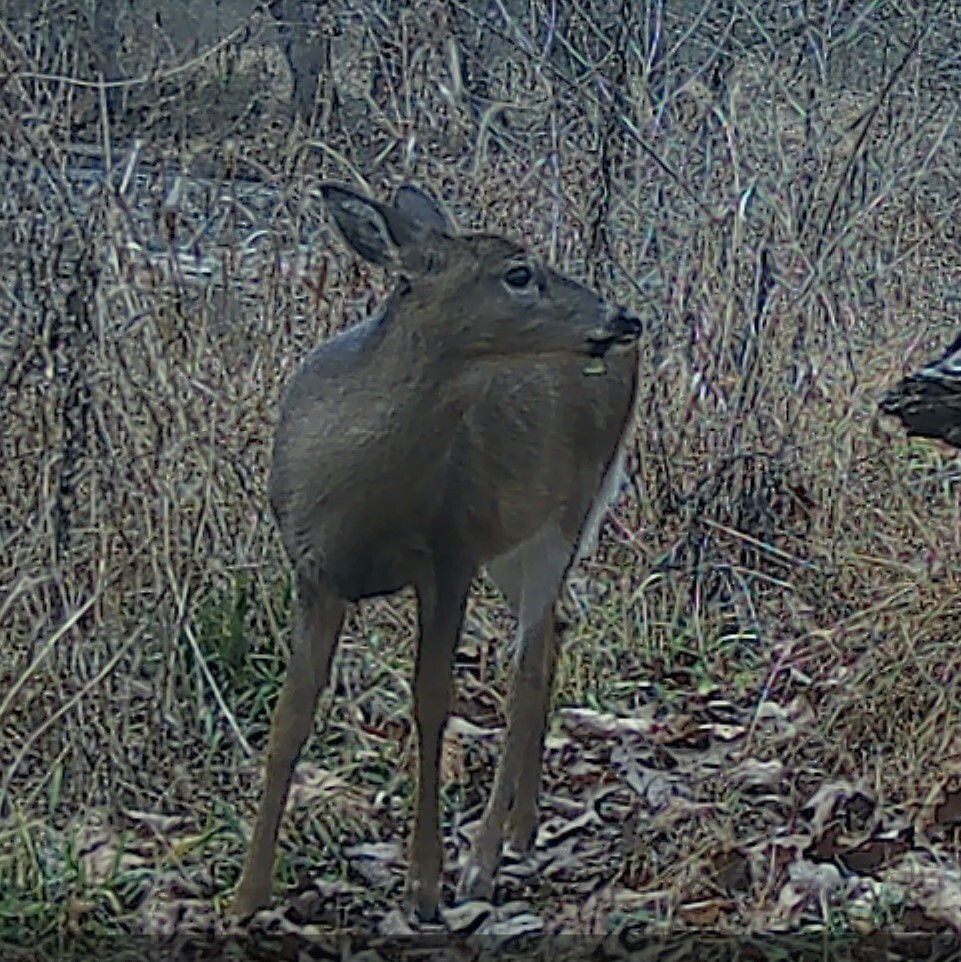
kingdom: Animalia
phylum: Chordata
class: Mammalia
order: Artiodactyla
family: Cervidae
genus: Odocoileus
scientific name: Odocoileus virginianus
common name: White-tailed deer
